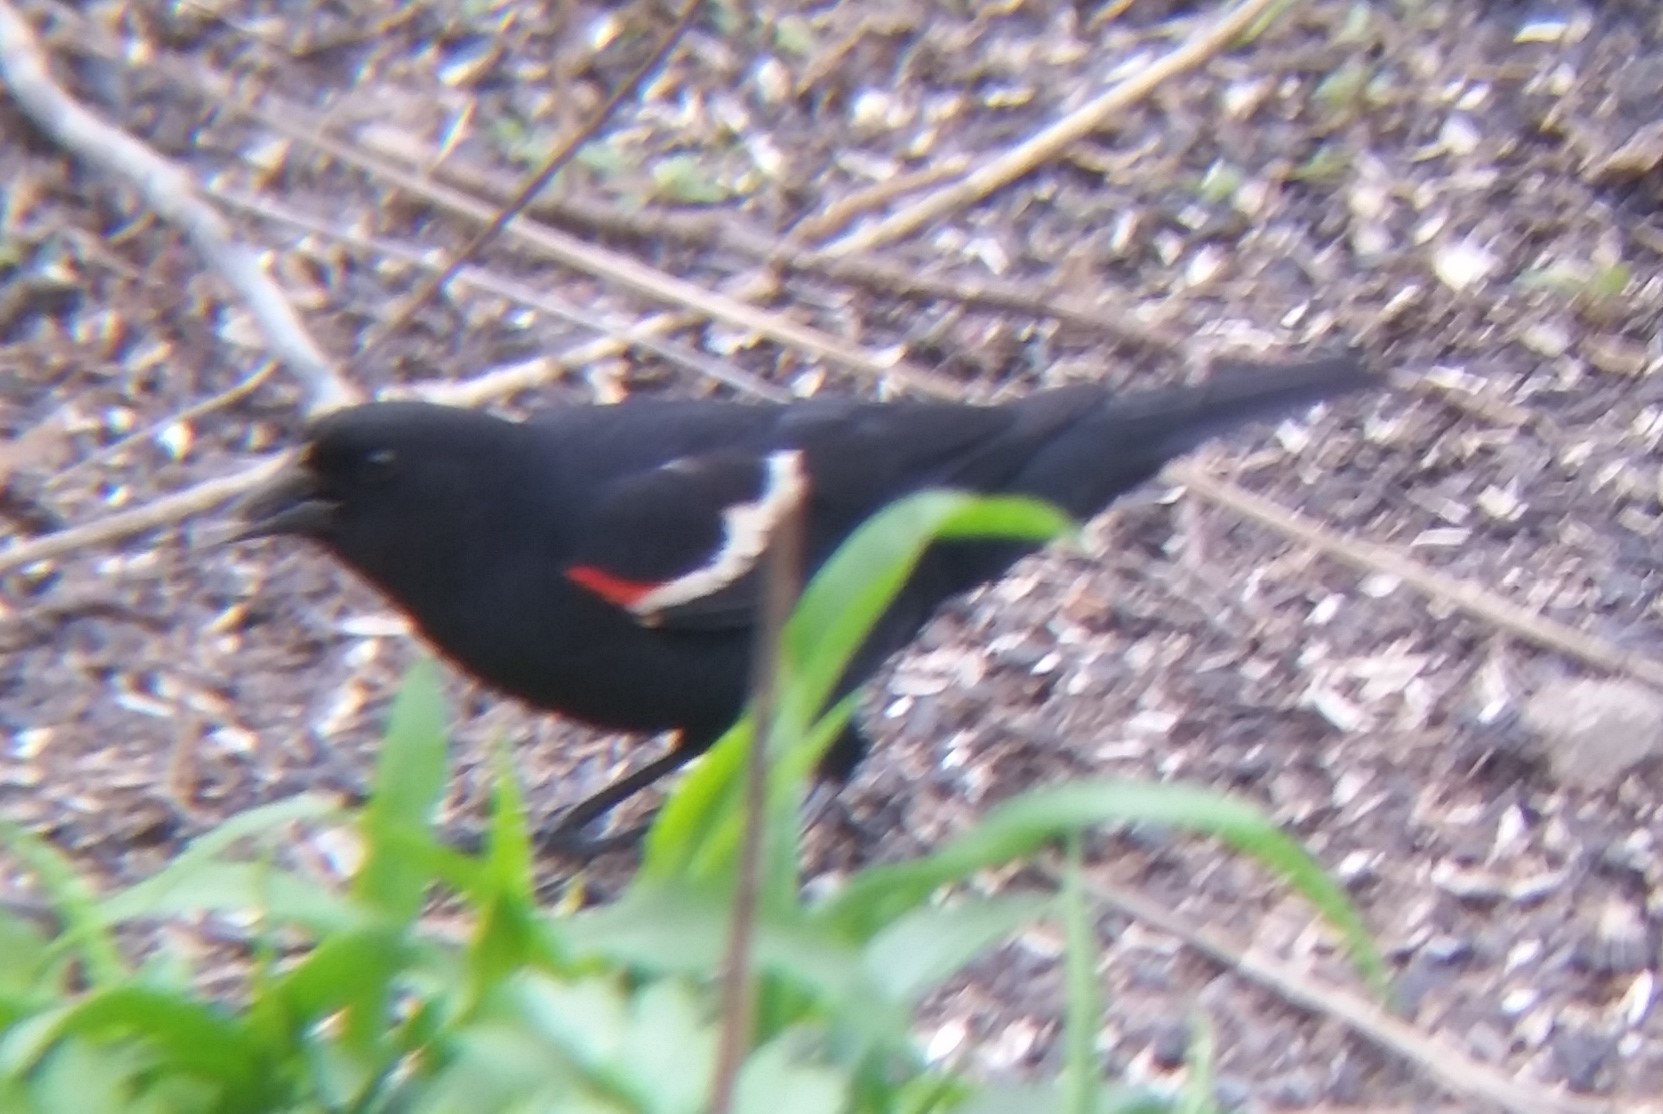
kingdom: Animalia
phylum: Chordata
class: Aves
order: Passeriformes
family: Icteridae
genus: Agelaius
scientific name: Agelaius phoeniceus
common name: Red-winged blackbird
